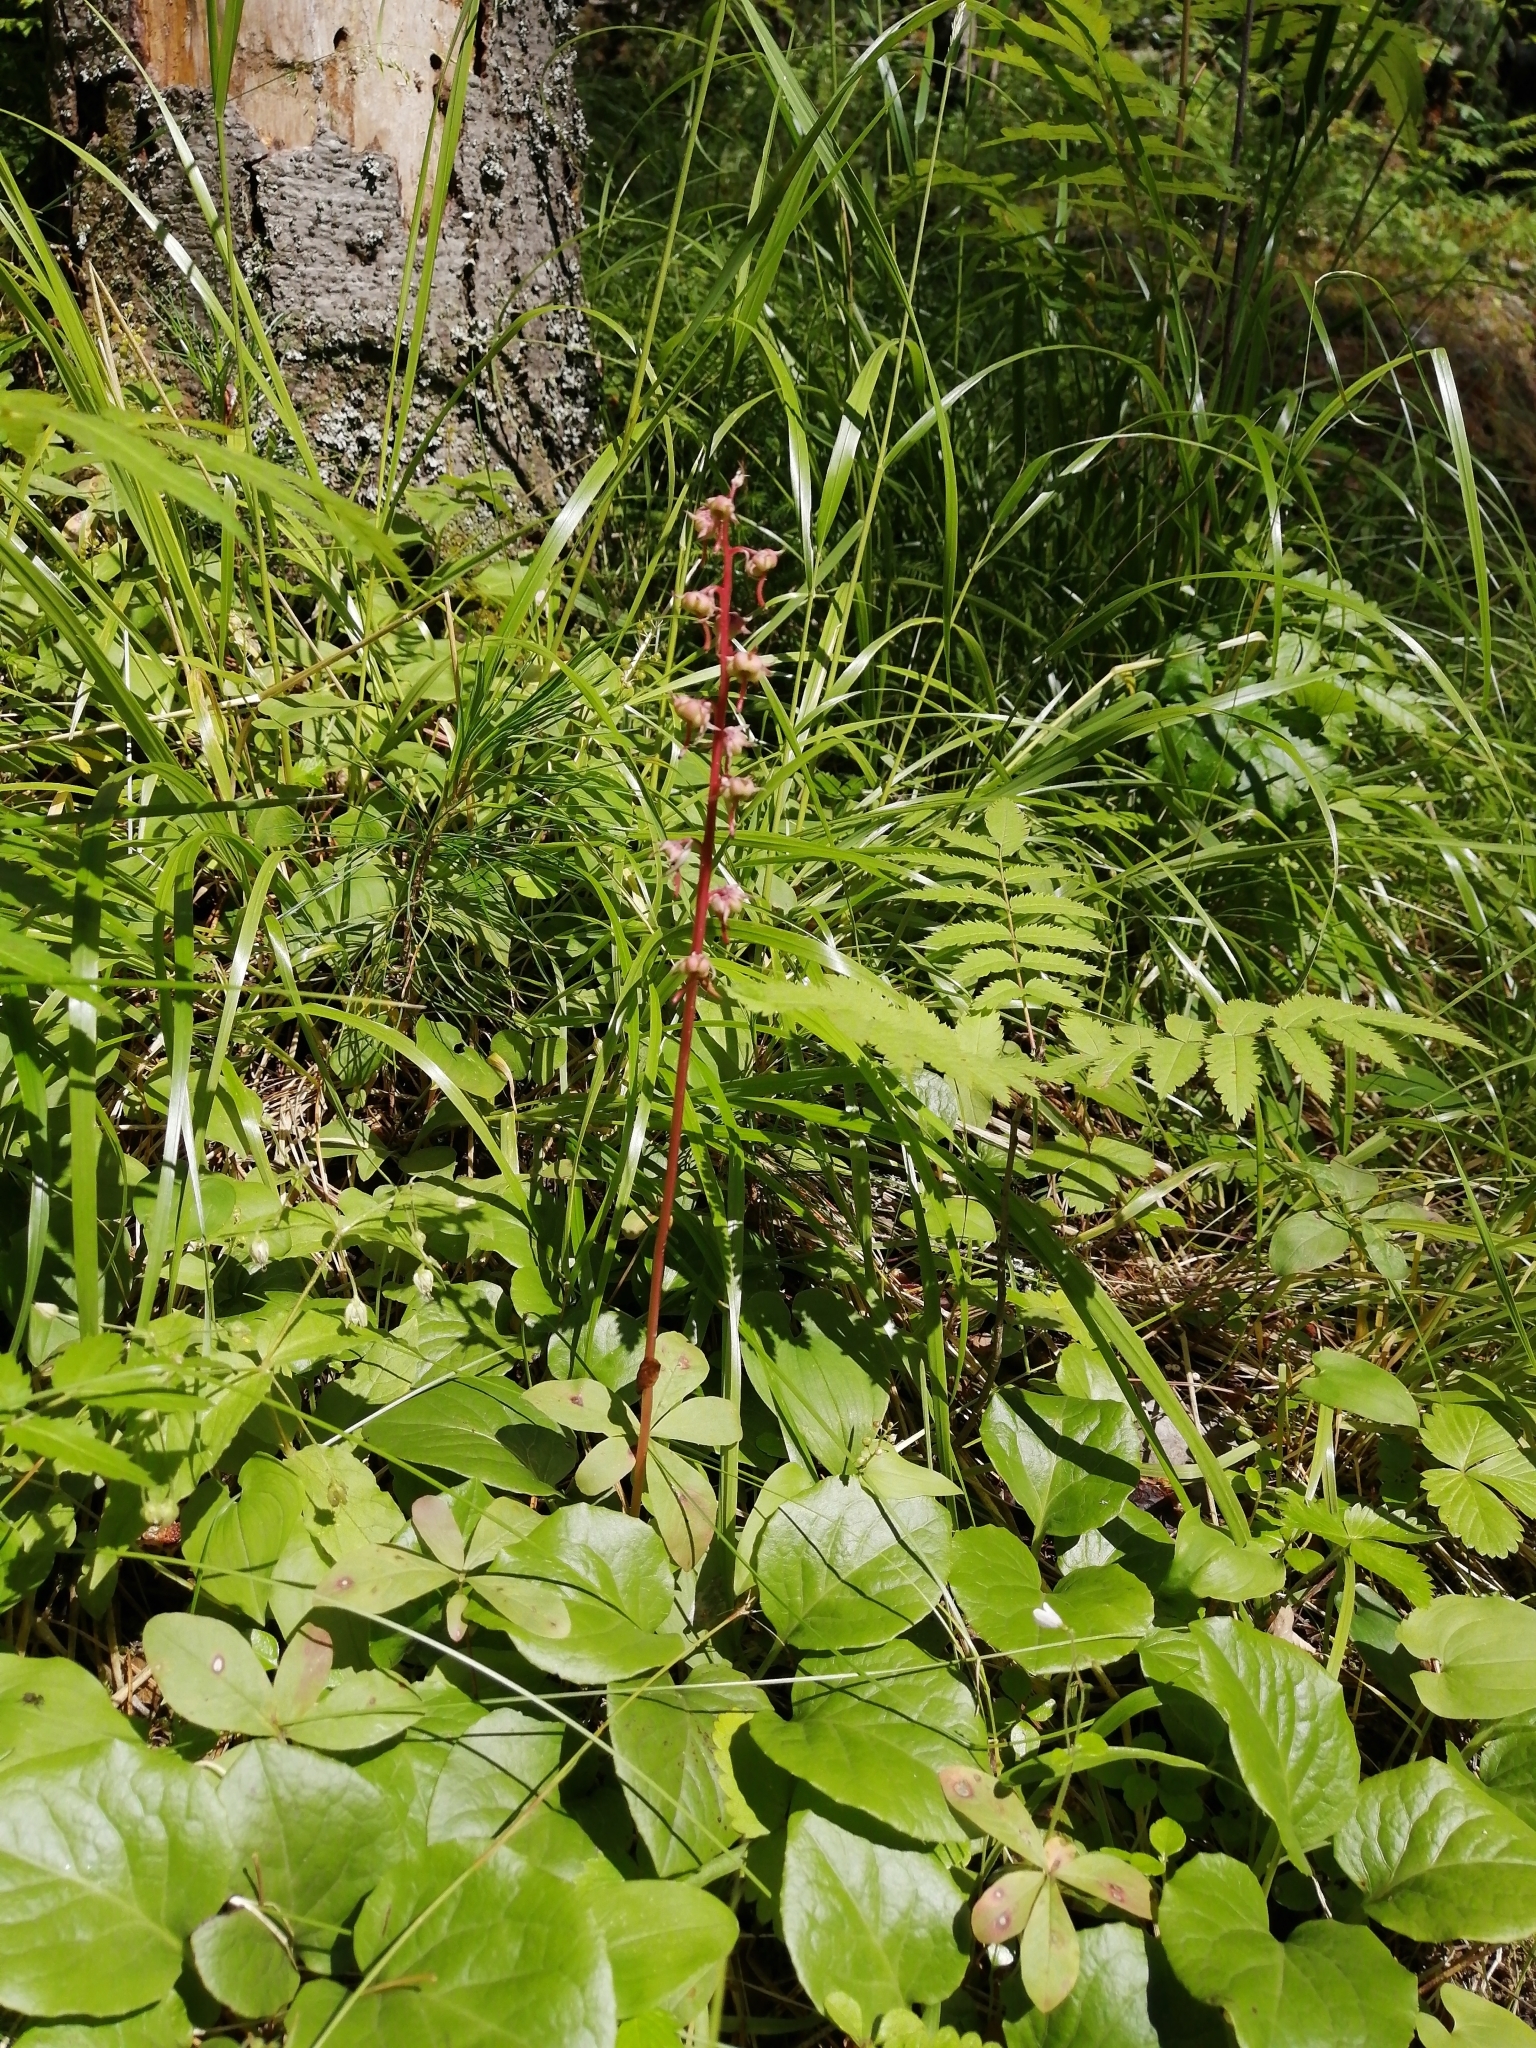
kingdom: Plantae
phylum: Tracheophyta
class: Magnoliopsida
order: Ericales
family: Ericaceae
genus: Pyrola
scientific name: Pyrola asarifolia
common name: Bog wintergreen
